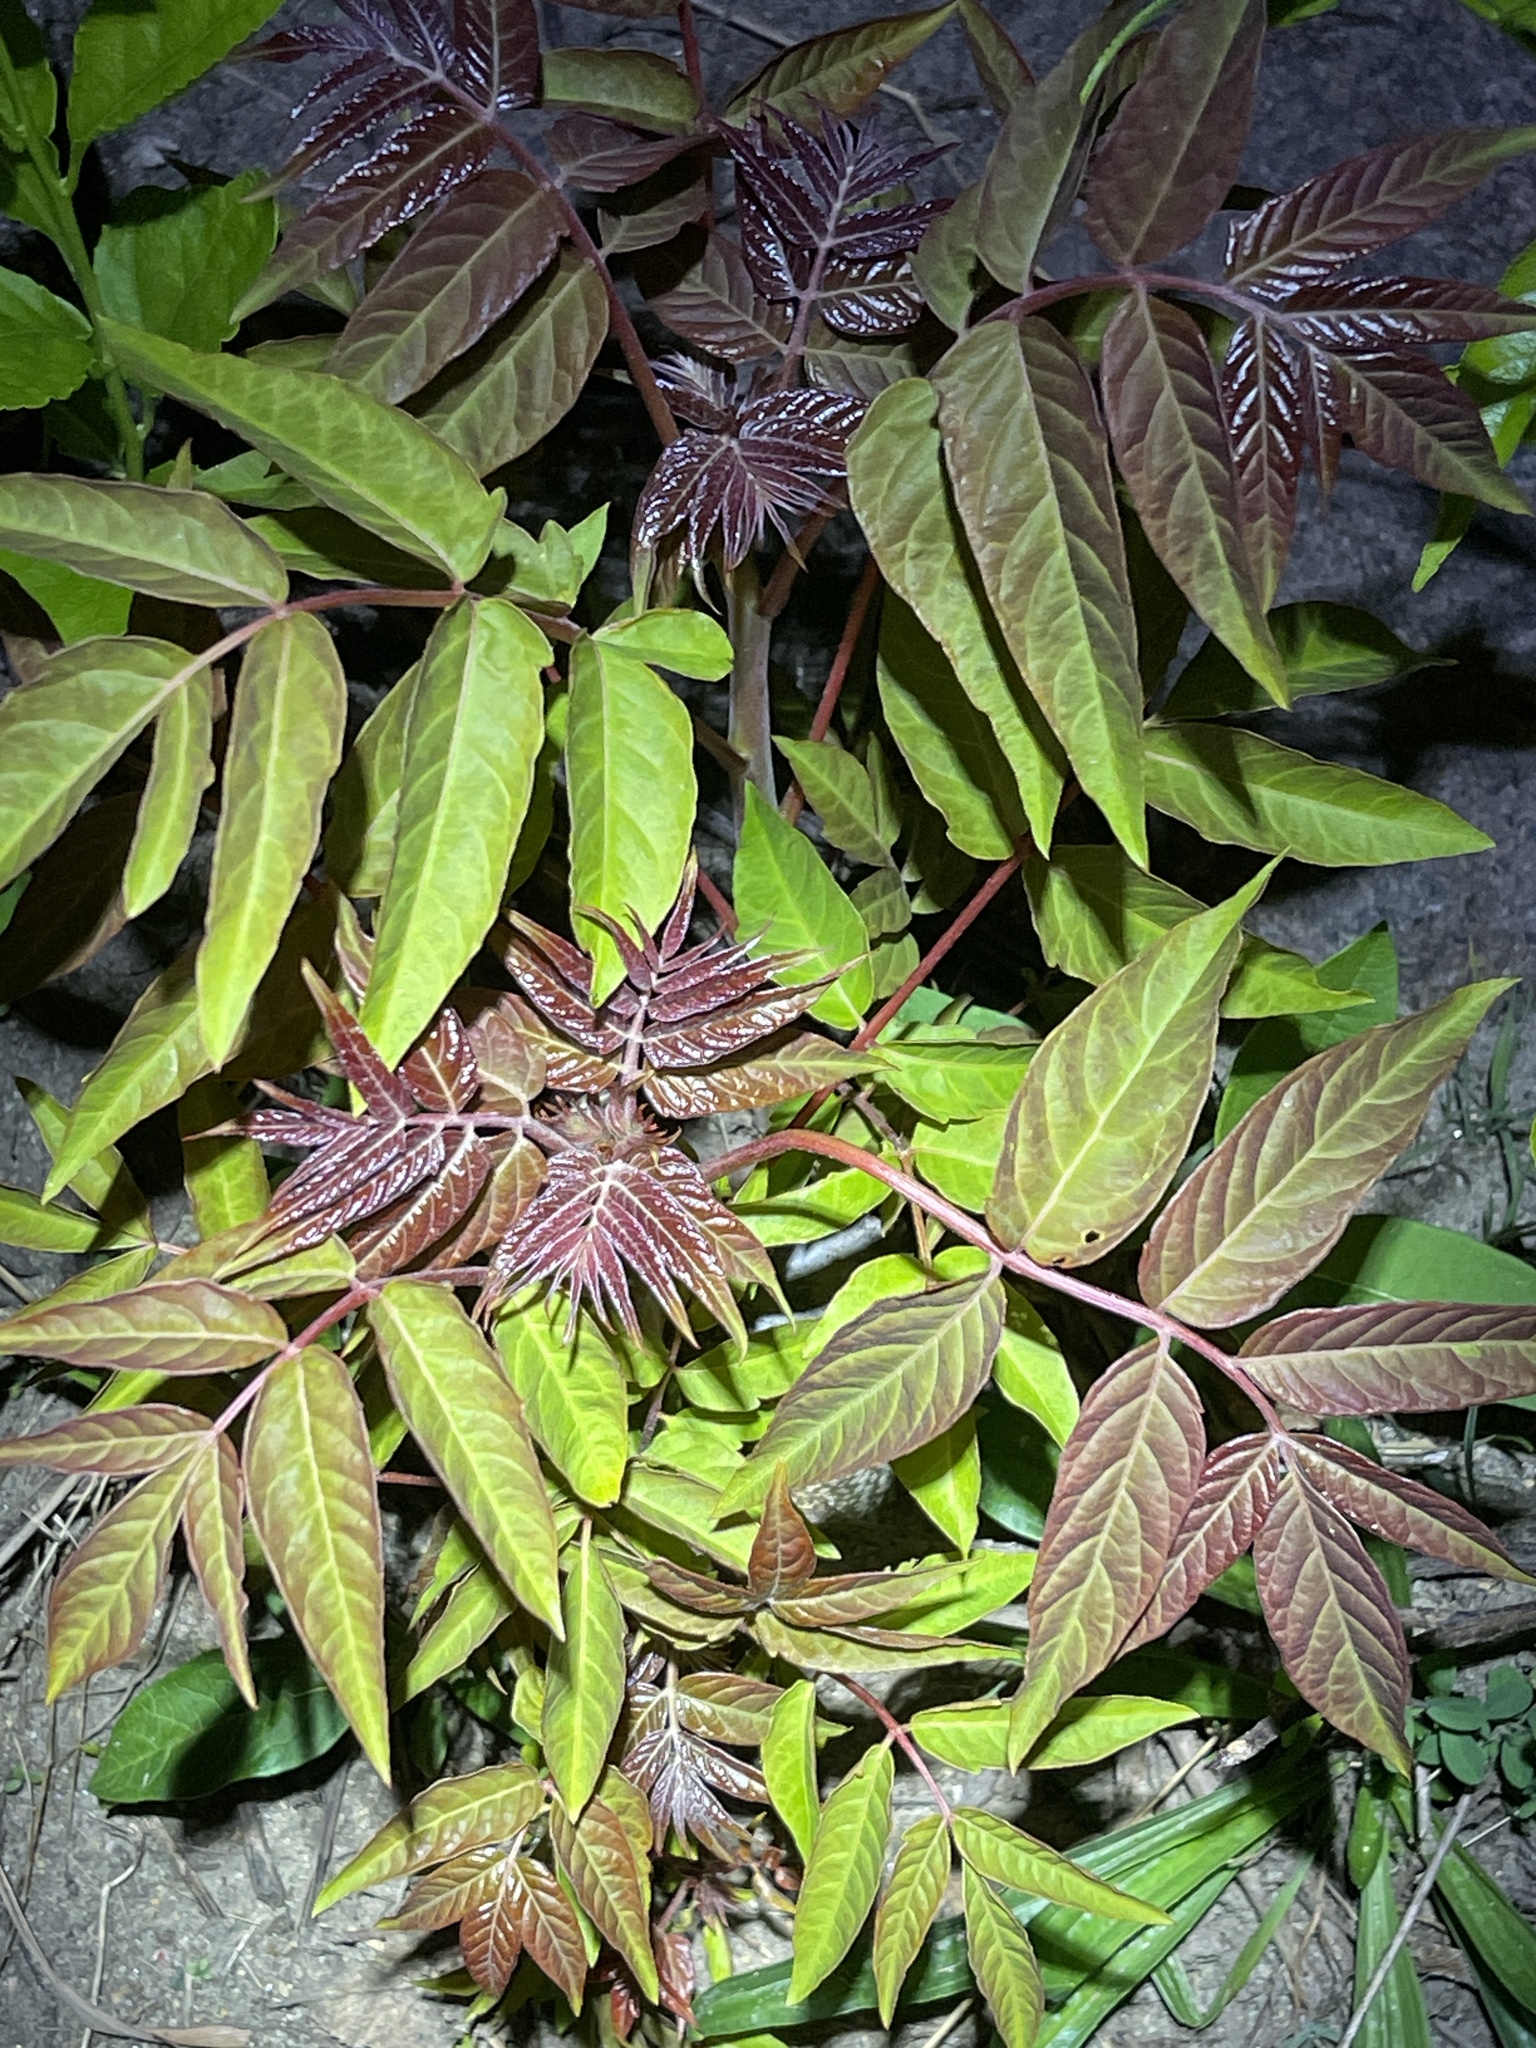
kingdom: Plantae
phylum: Tracheophyta
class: Magnoliopsida
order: Sapindales
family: Simaroubaceae
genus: Ailanthus
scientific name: Ailanthus altissima
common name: Tree-of-heaven
